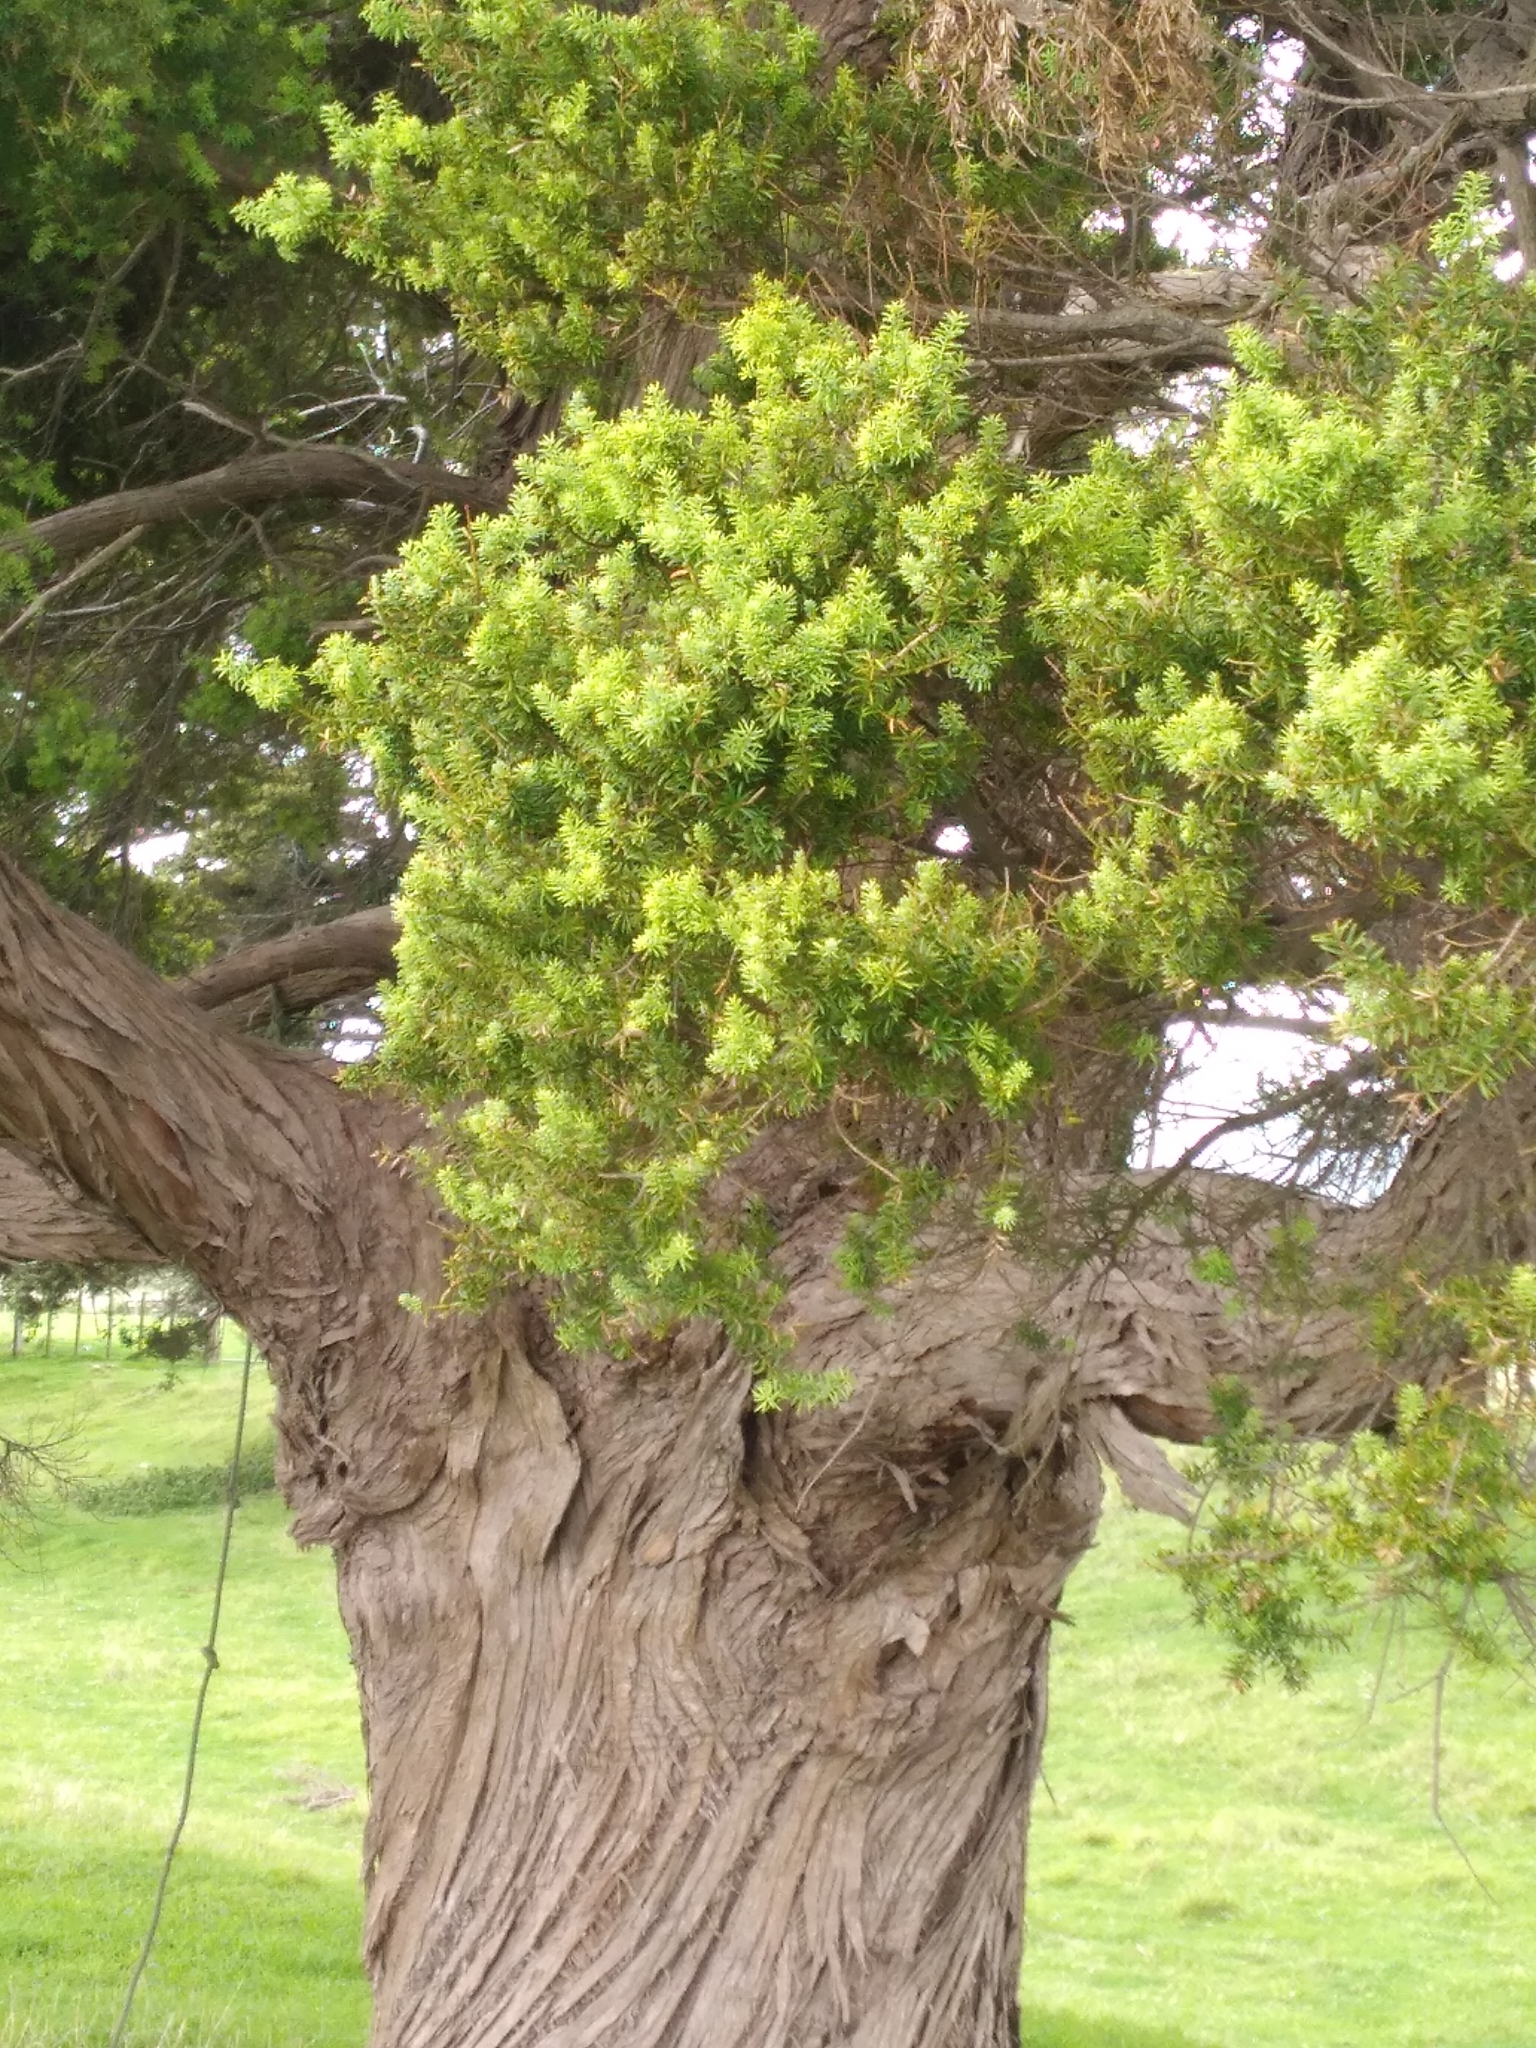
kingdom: Plantae
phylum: Tracheophyta
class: Pinopsida
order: Pinales
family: Podocarpaceae
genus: Podocarpus
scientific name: Podocarpus totara
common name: Totara
